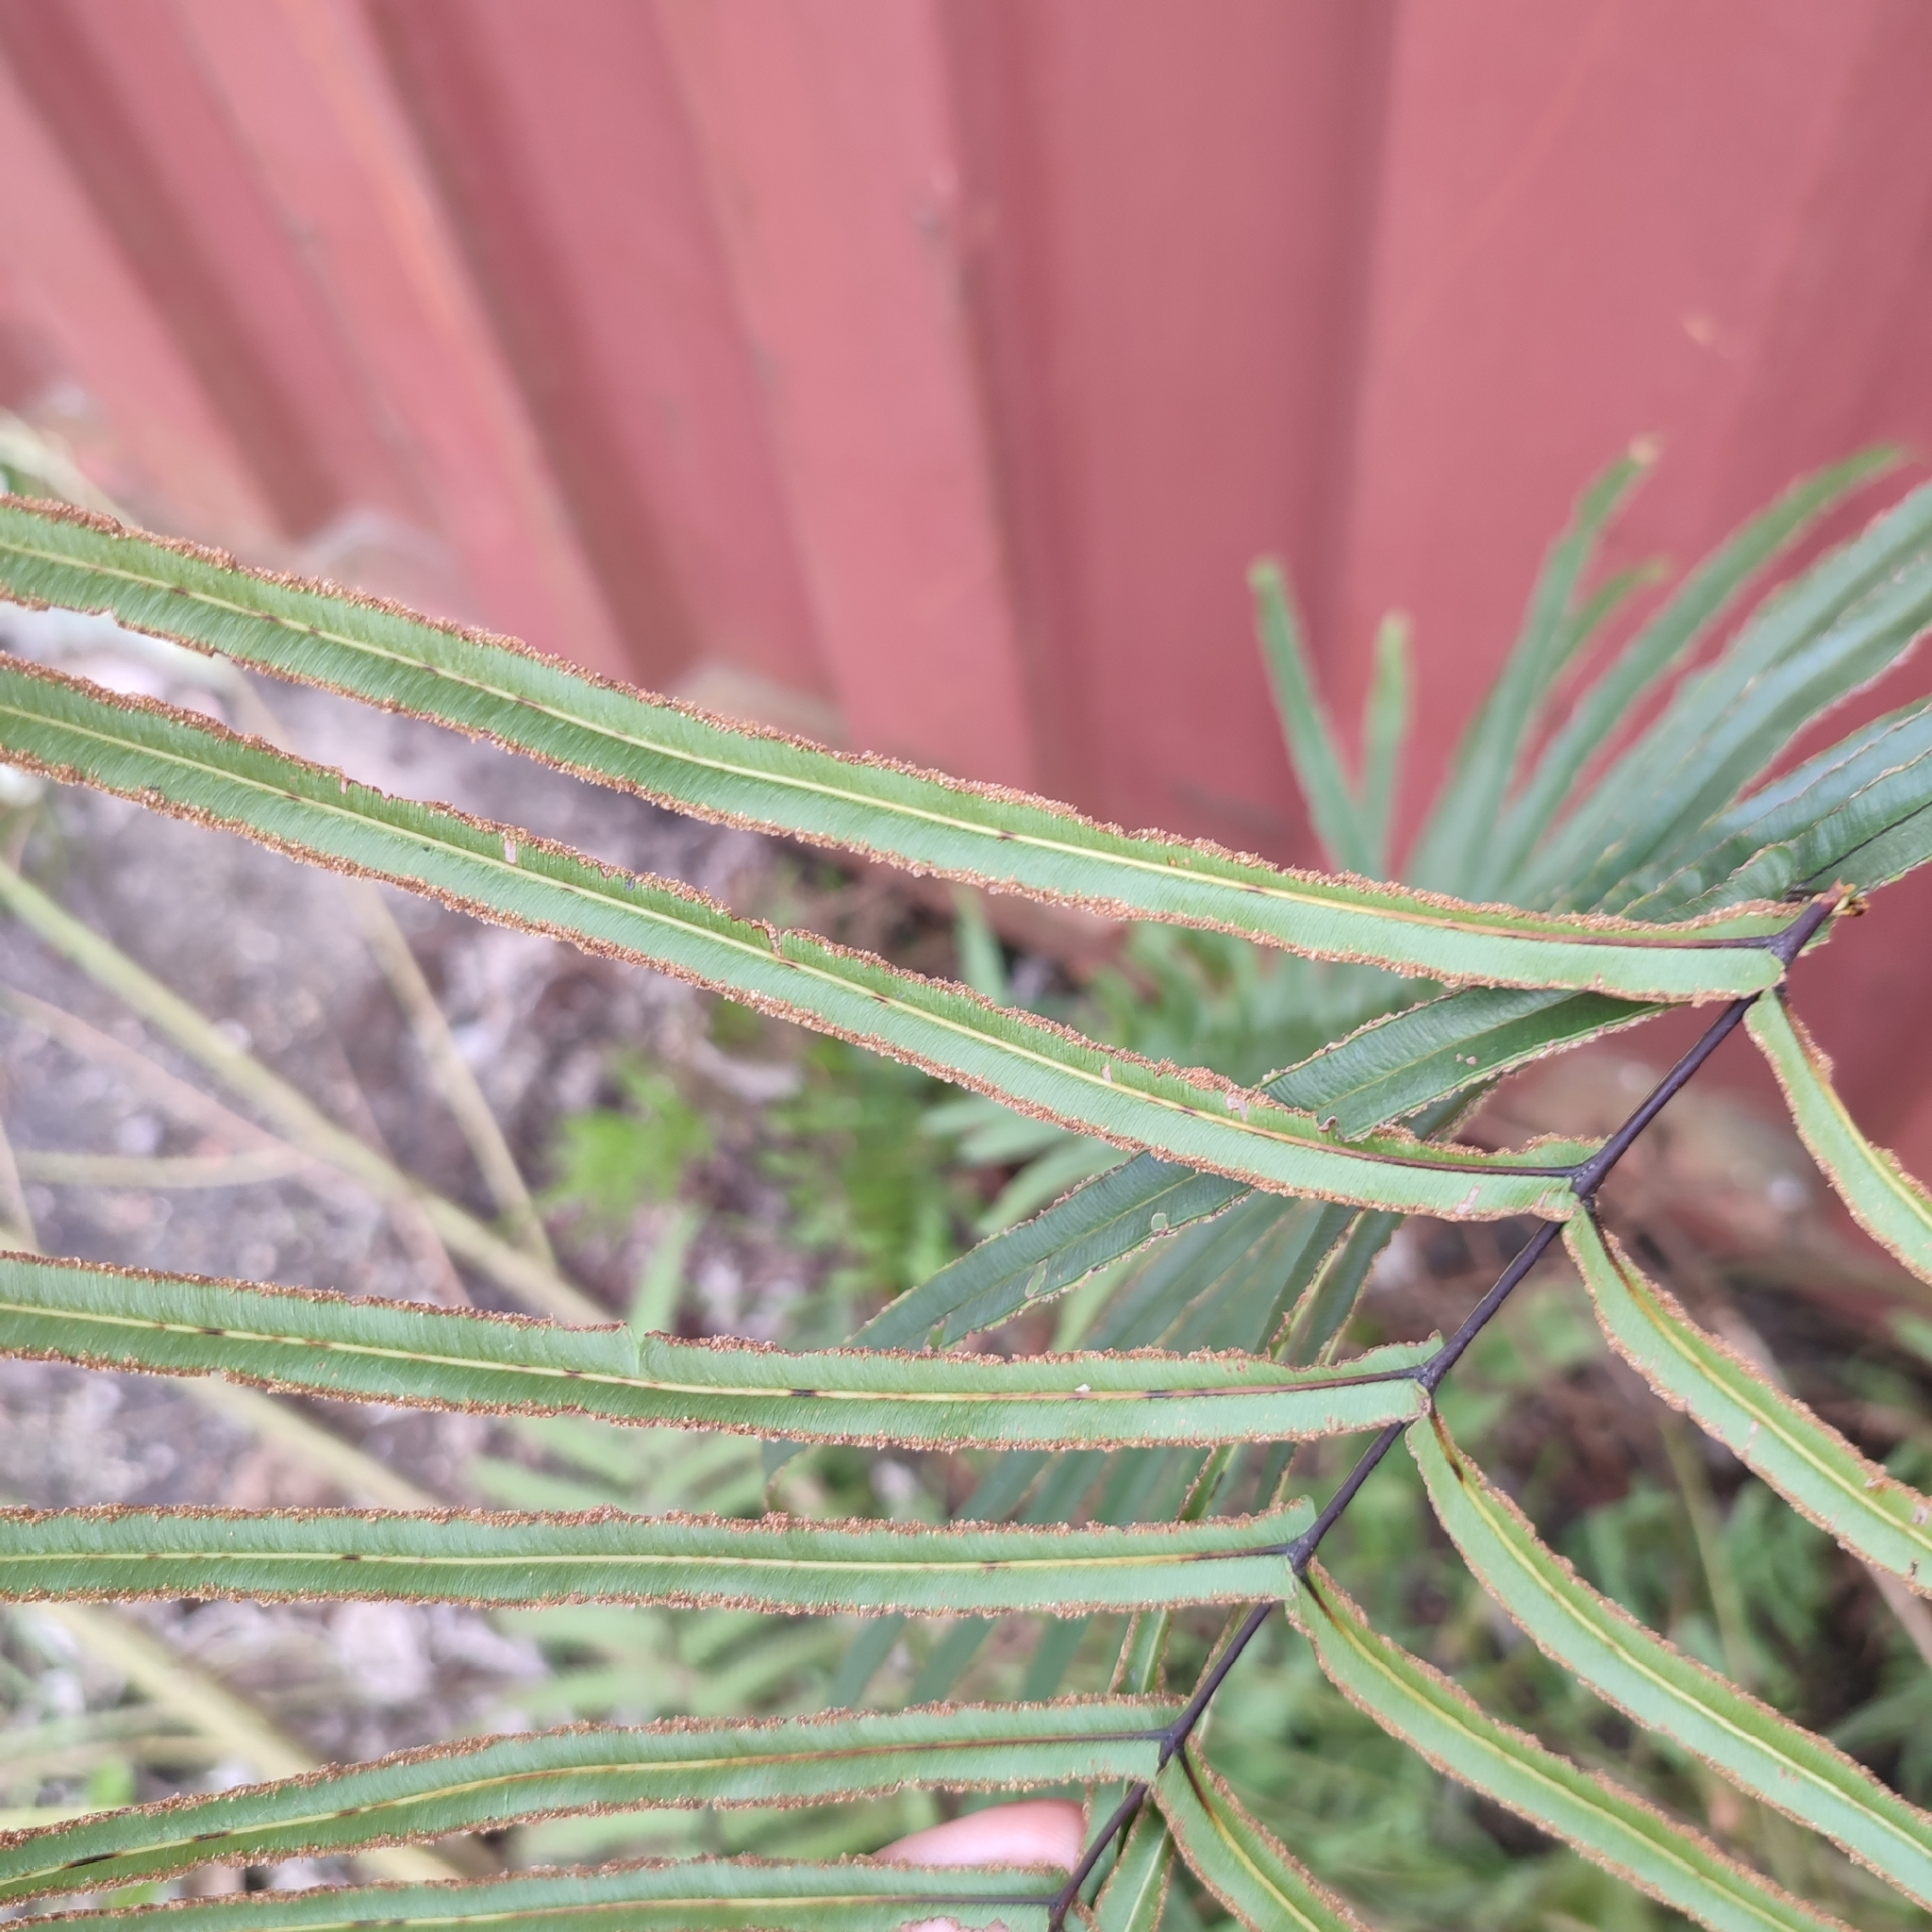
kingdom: Plantae
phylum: Tracheophyta
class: Polypodiopsida
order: Polypodiales
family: Pteridaceae
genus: Pteris
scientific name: Pteris vittata
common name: Ladder brake
